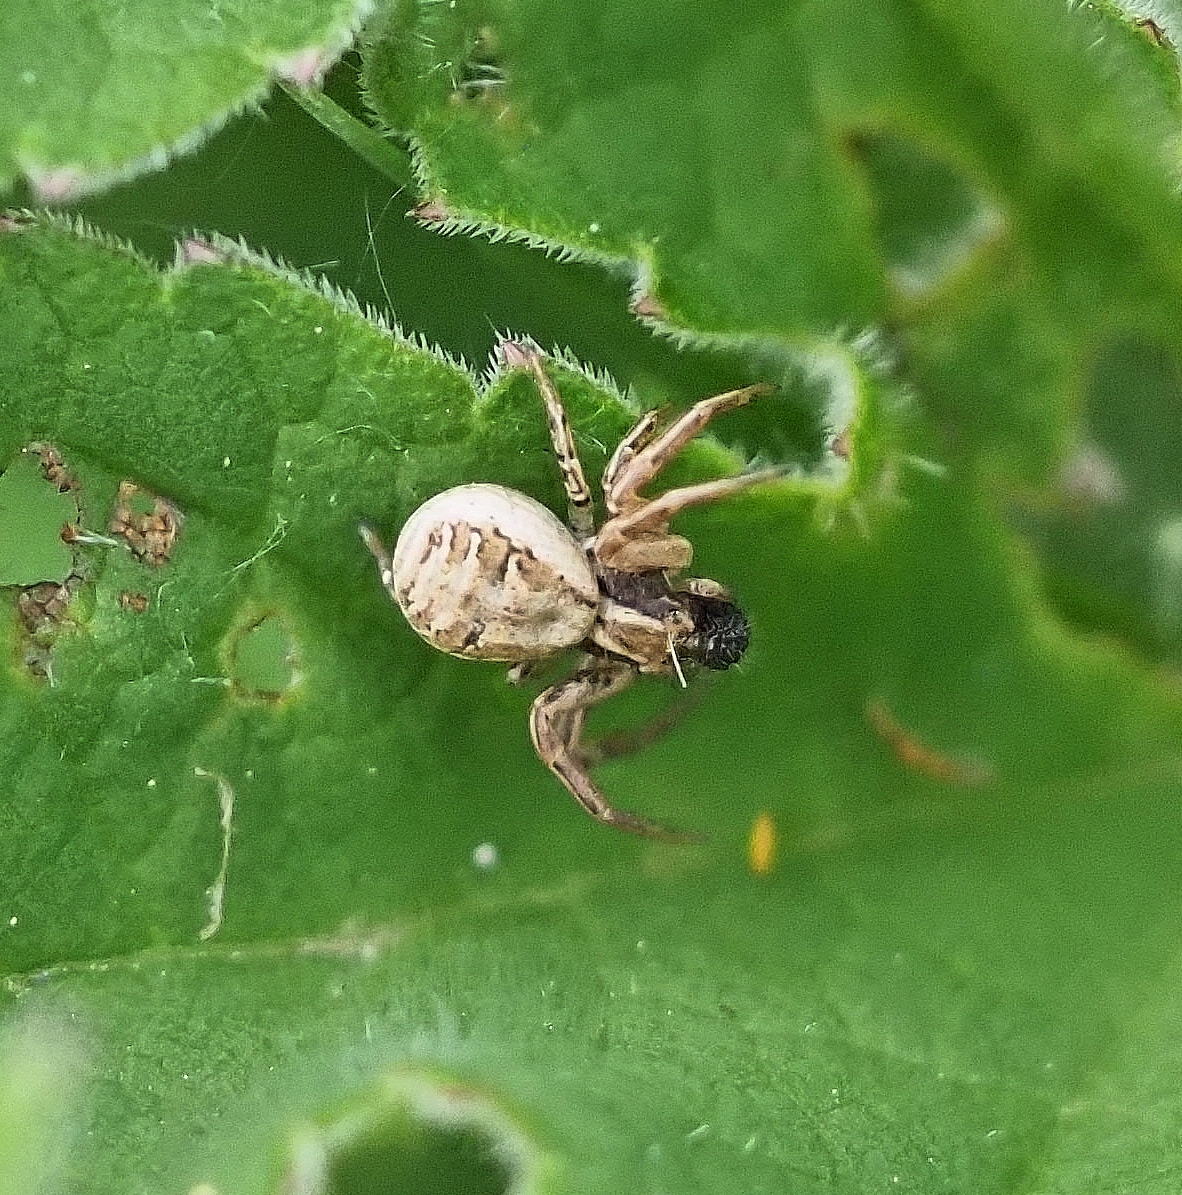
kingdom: Animalia
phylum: Arthropoda
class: Arachnida
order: Araneae
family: Thomisidae
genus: Xysticus
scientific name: Xysticus
